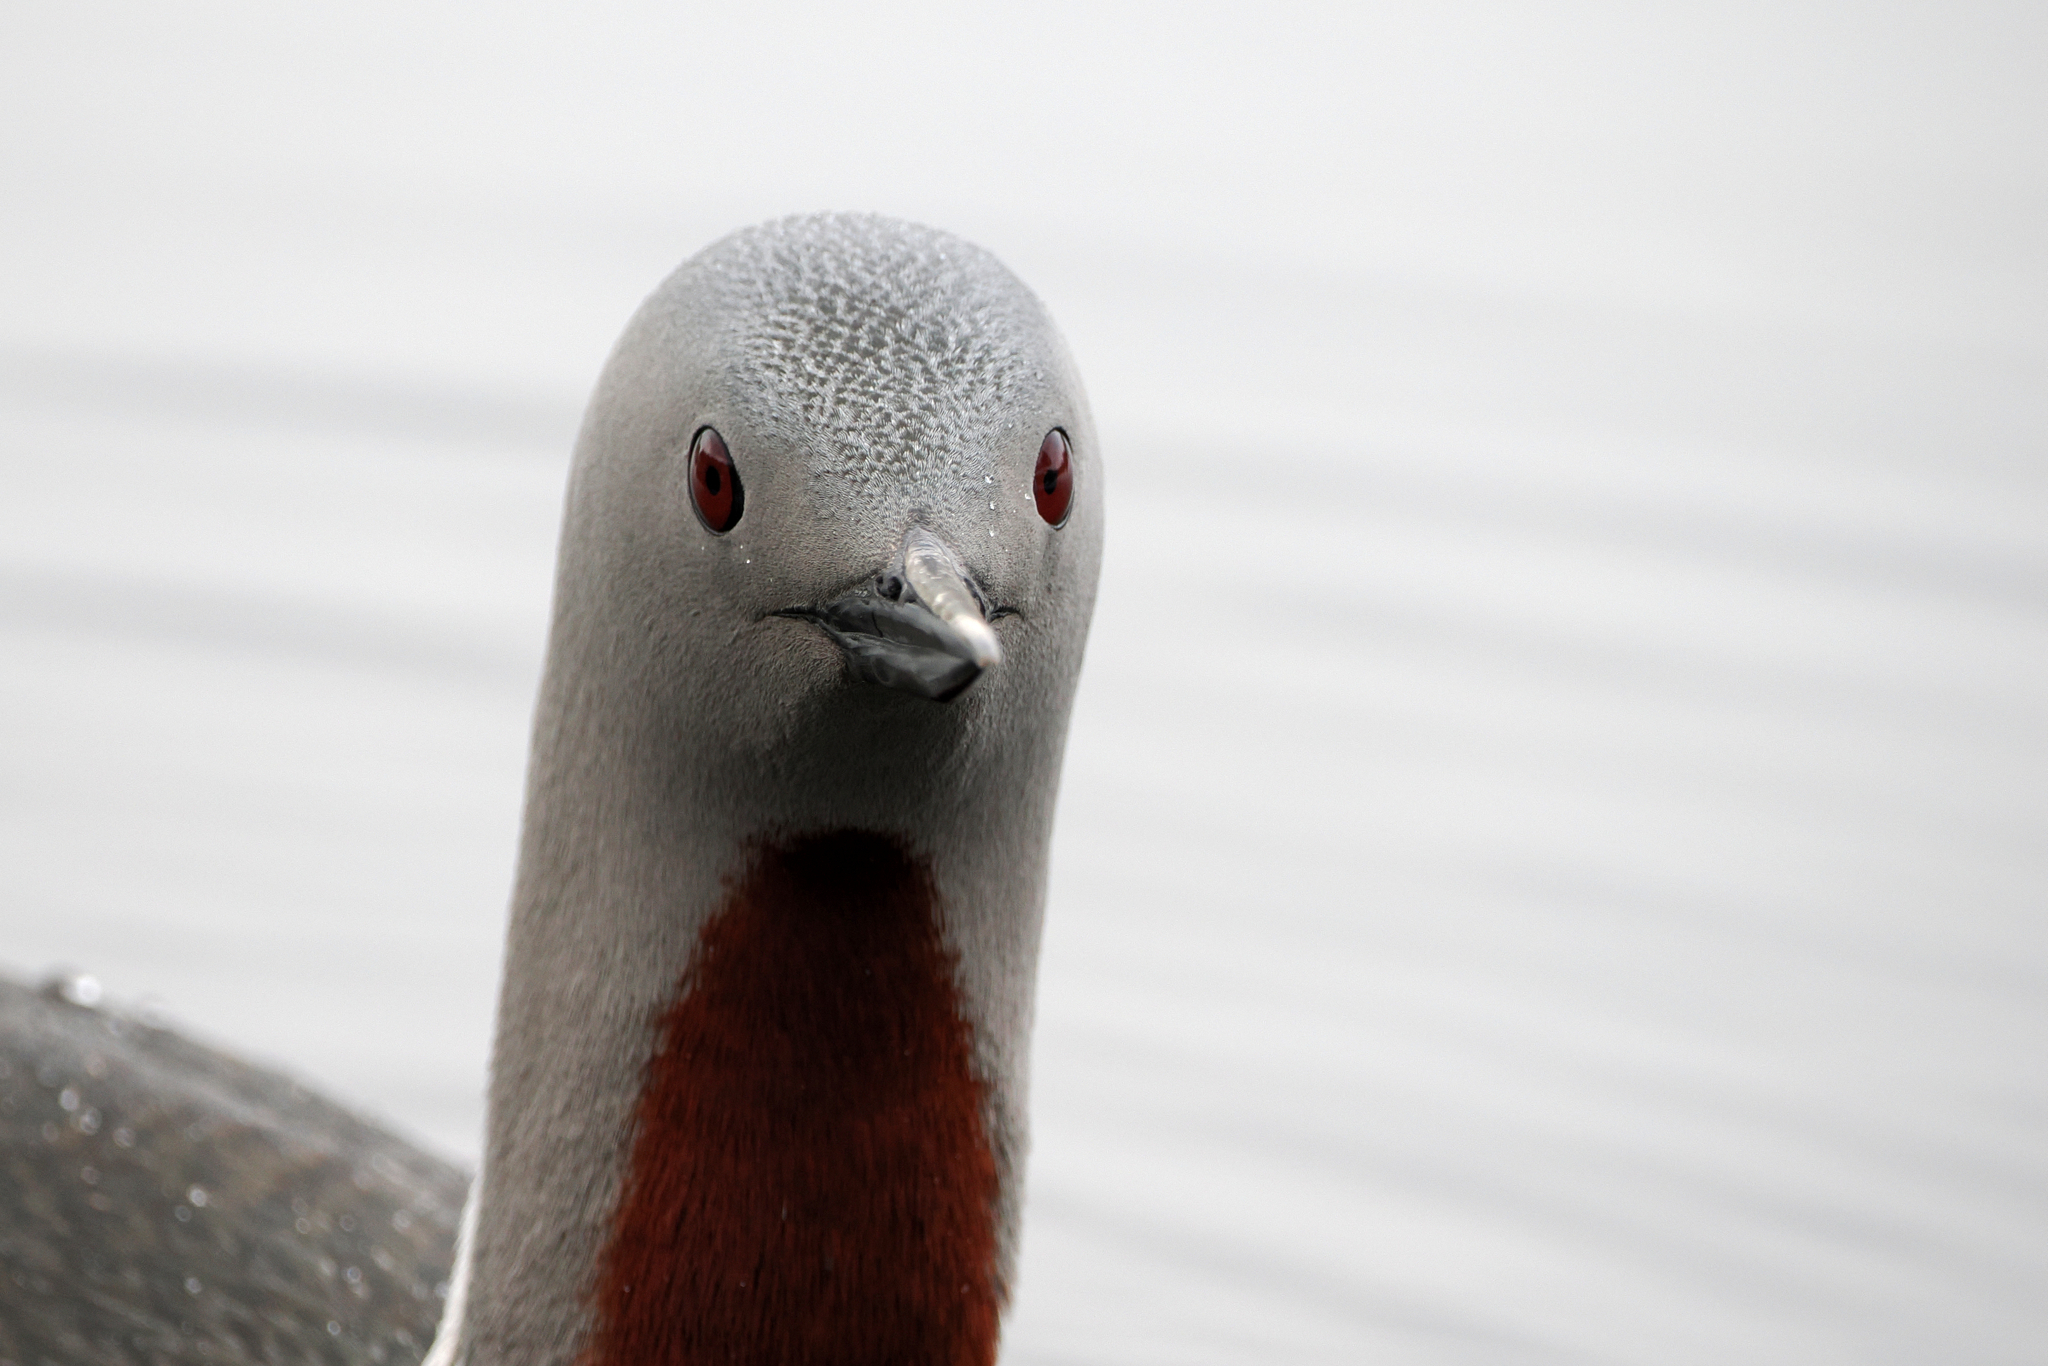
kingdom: Animalia
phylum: Chordata
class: Aves
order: Gaviiformes
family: Gaviidae
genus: Gavia
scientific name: Gavia stellata
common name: Red-throated loon
